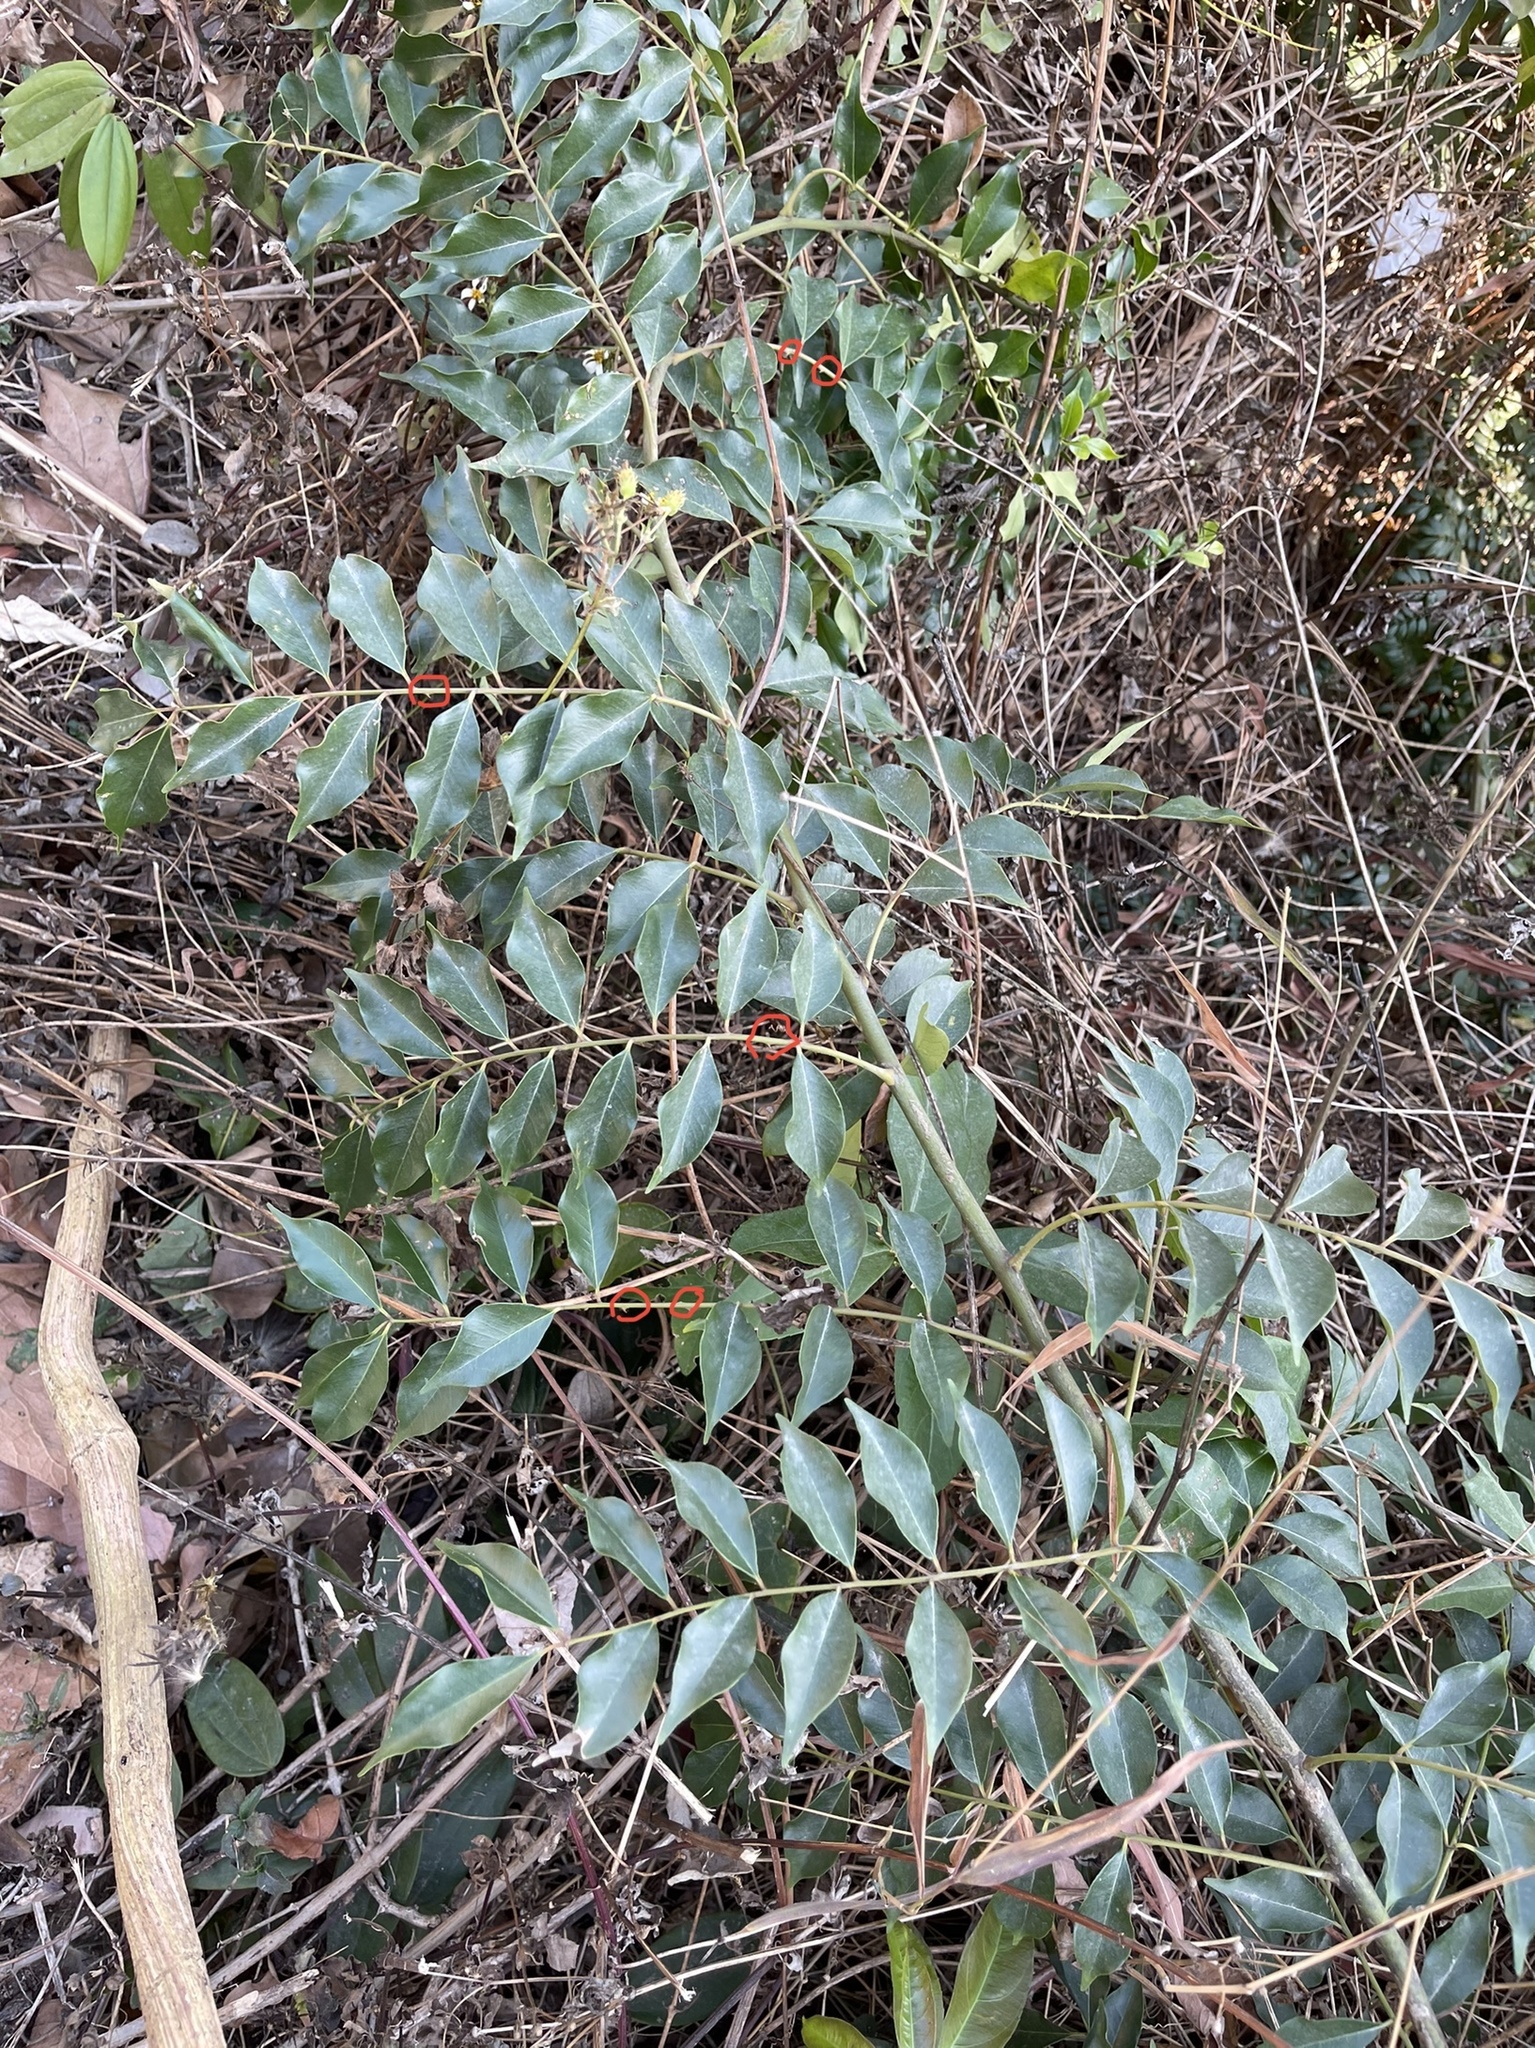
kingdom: Plantae
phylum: Tracheophyta
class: Magnoliopsida
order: Sapindales
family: Rutaceae
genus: Zanthoxylum
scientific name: Zanthoxylum scandens
